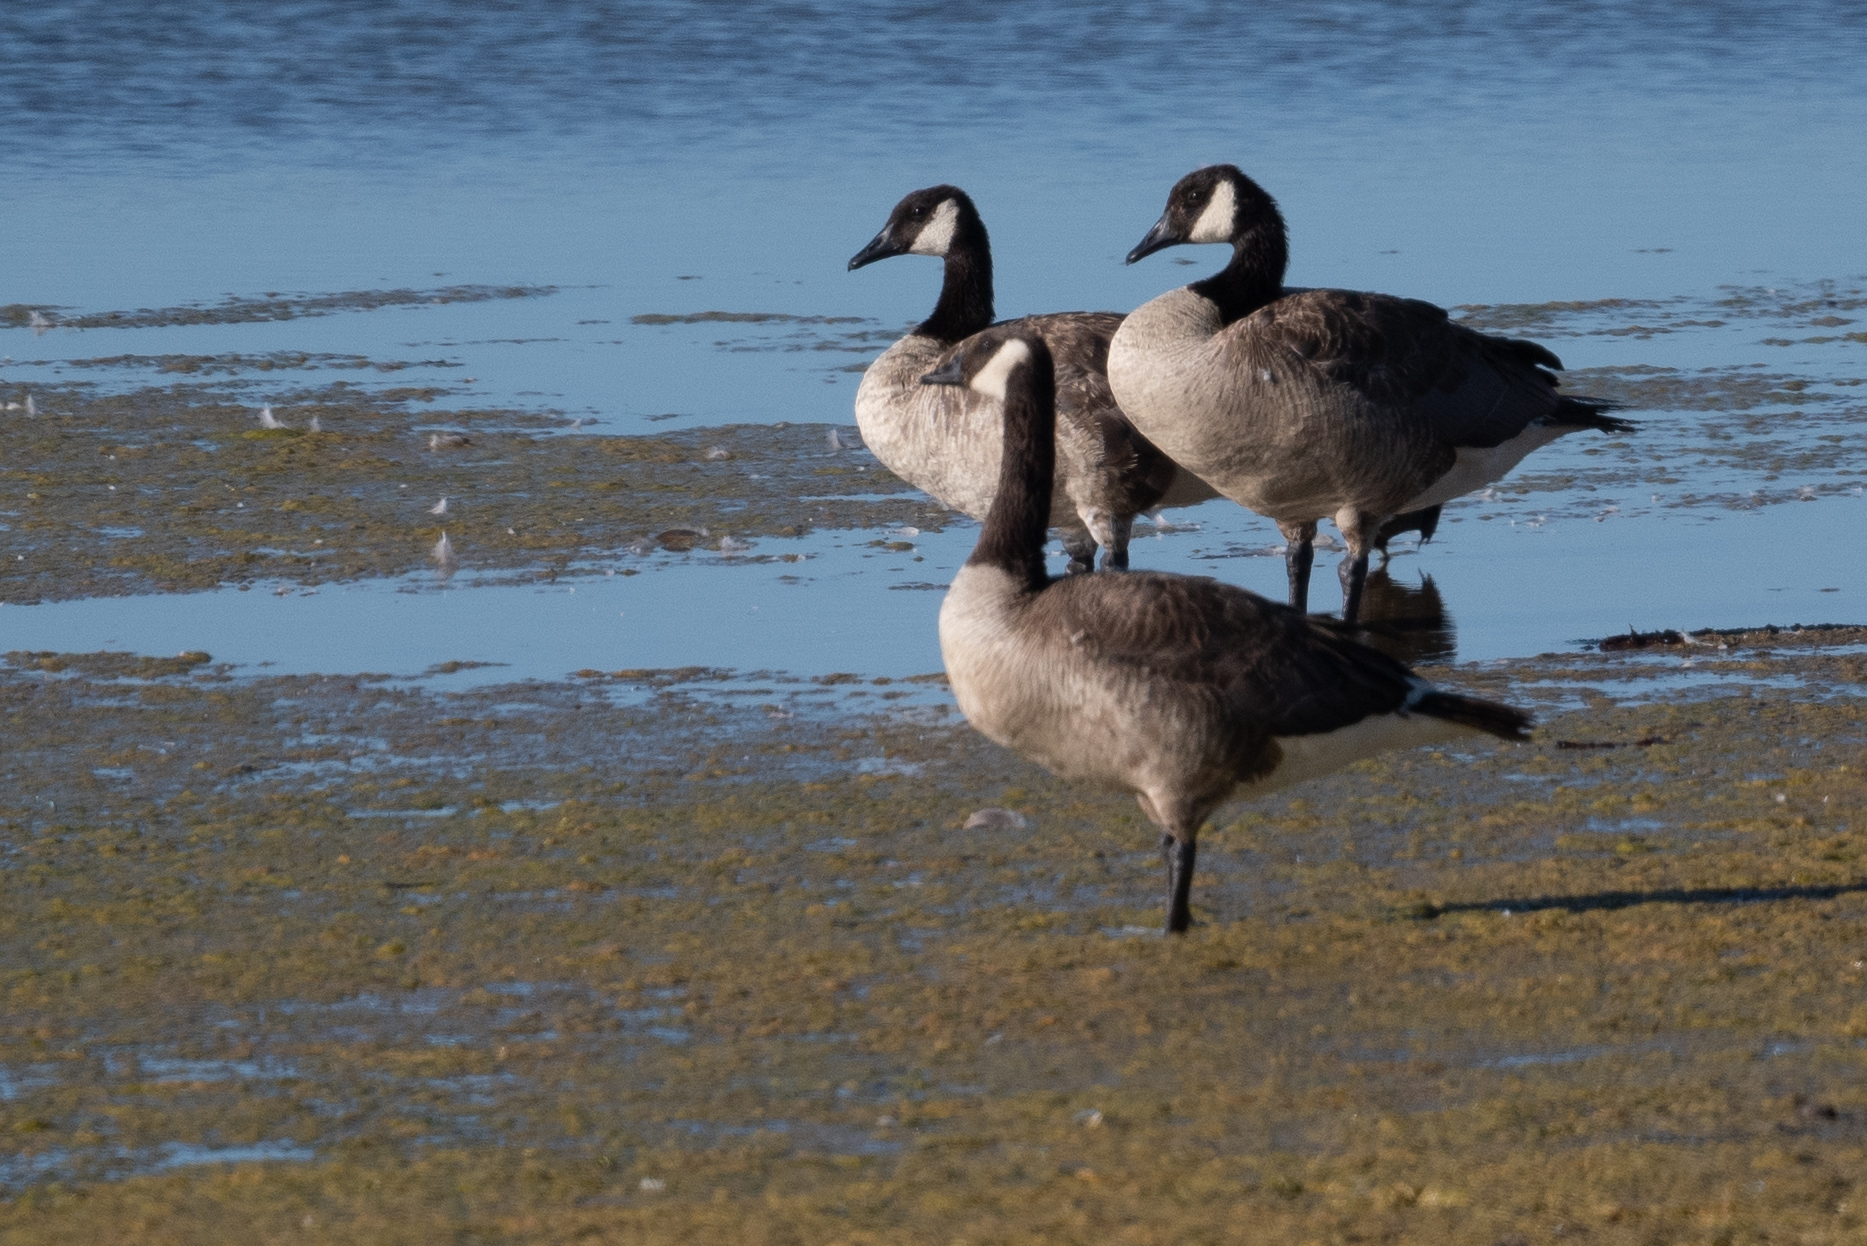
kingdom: Animalia
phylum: Chordata
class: Aves
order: Anseriformes
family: Anatidae
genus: Branta
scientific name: Branta canadensis
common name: Canada goose
